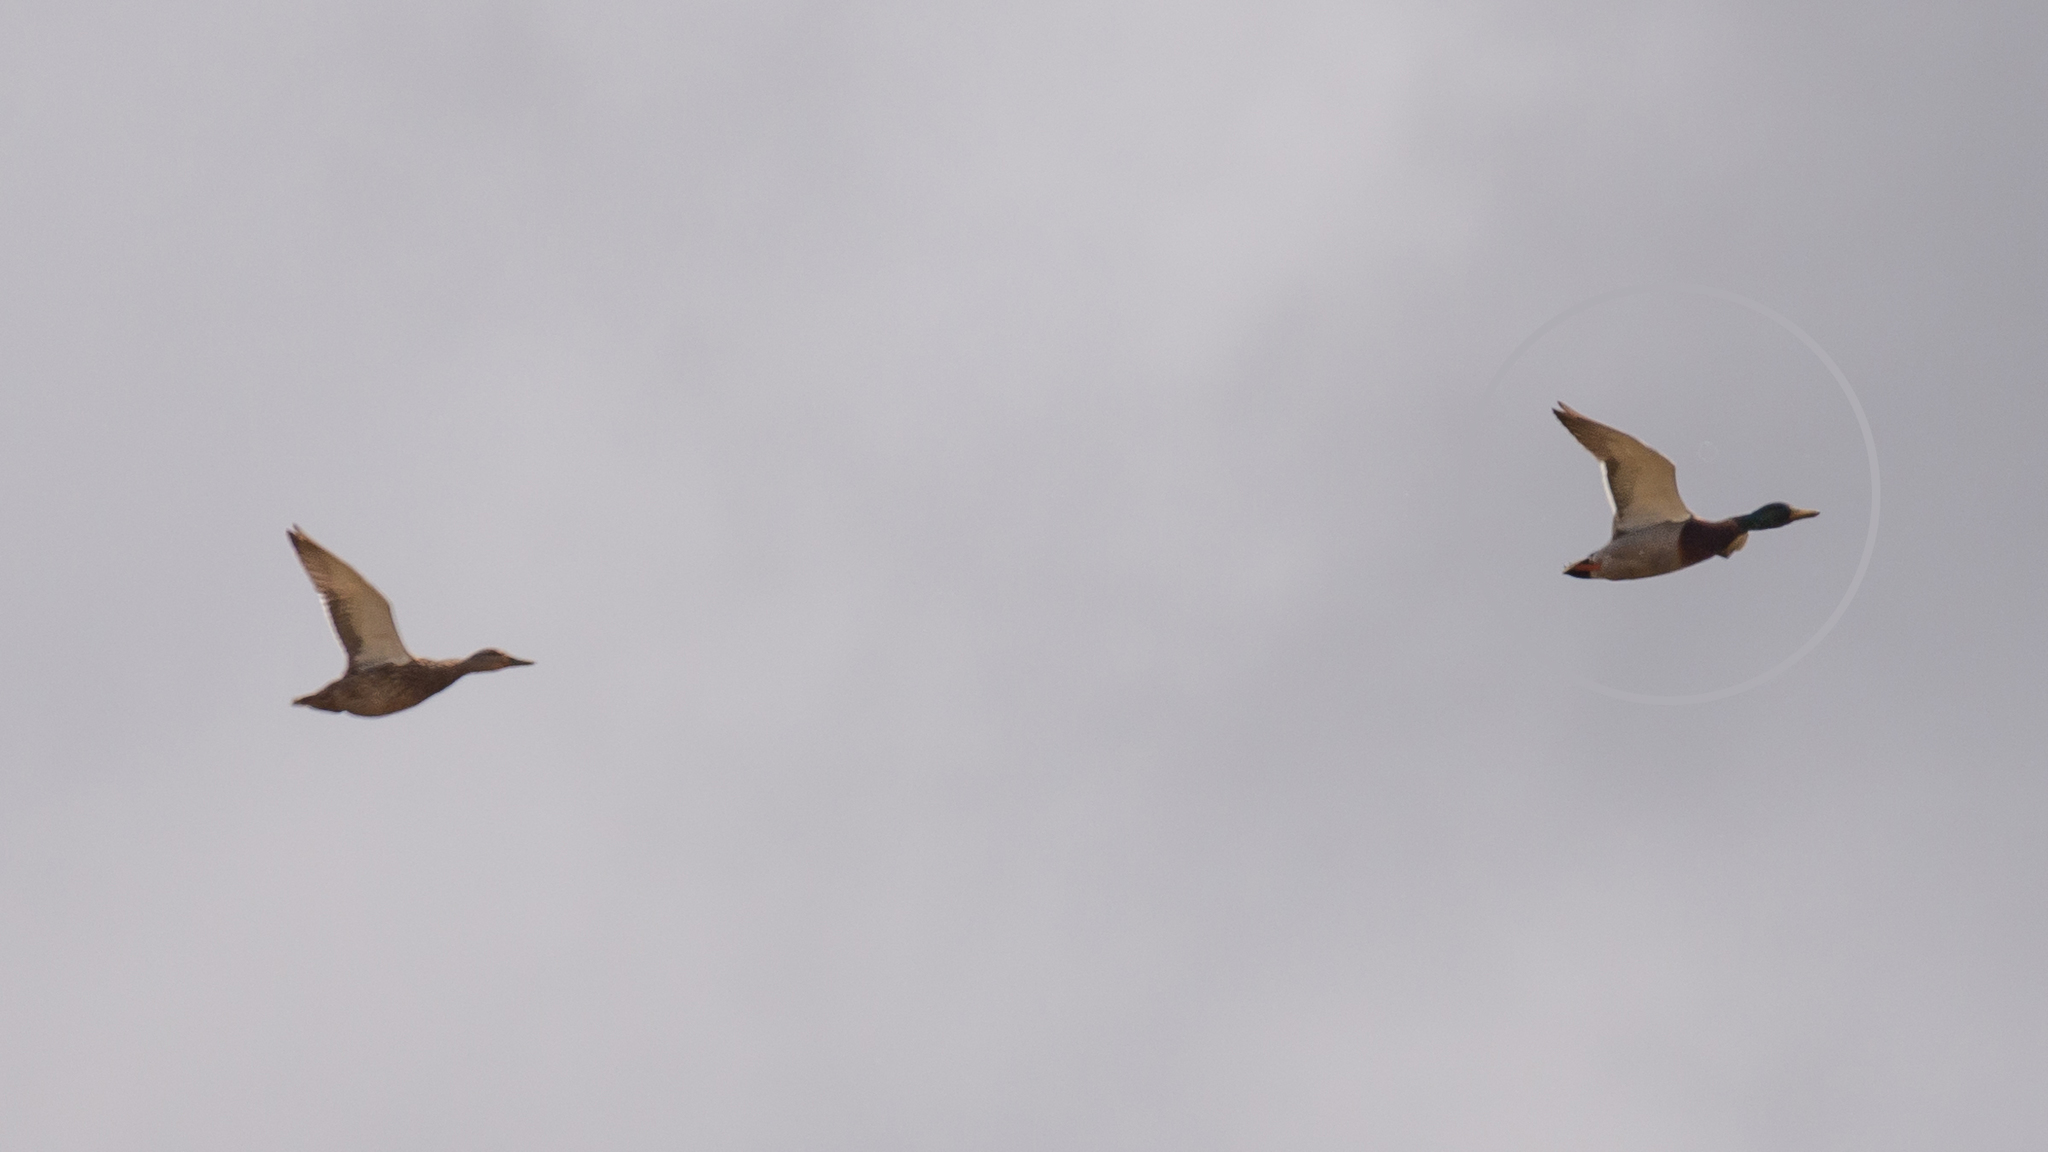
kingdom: Animalia
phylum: Chordata
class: Aves
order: Anseriformes
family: Anatidae
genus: Anas
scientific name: Anas platyrhynchos
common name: Mallard
